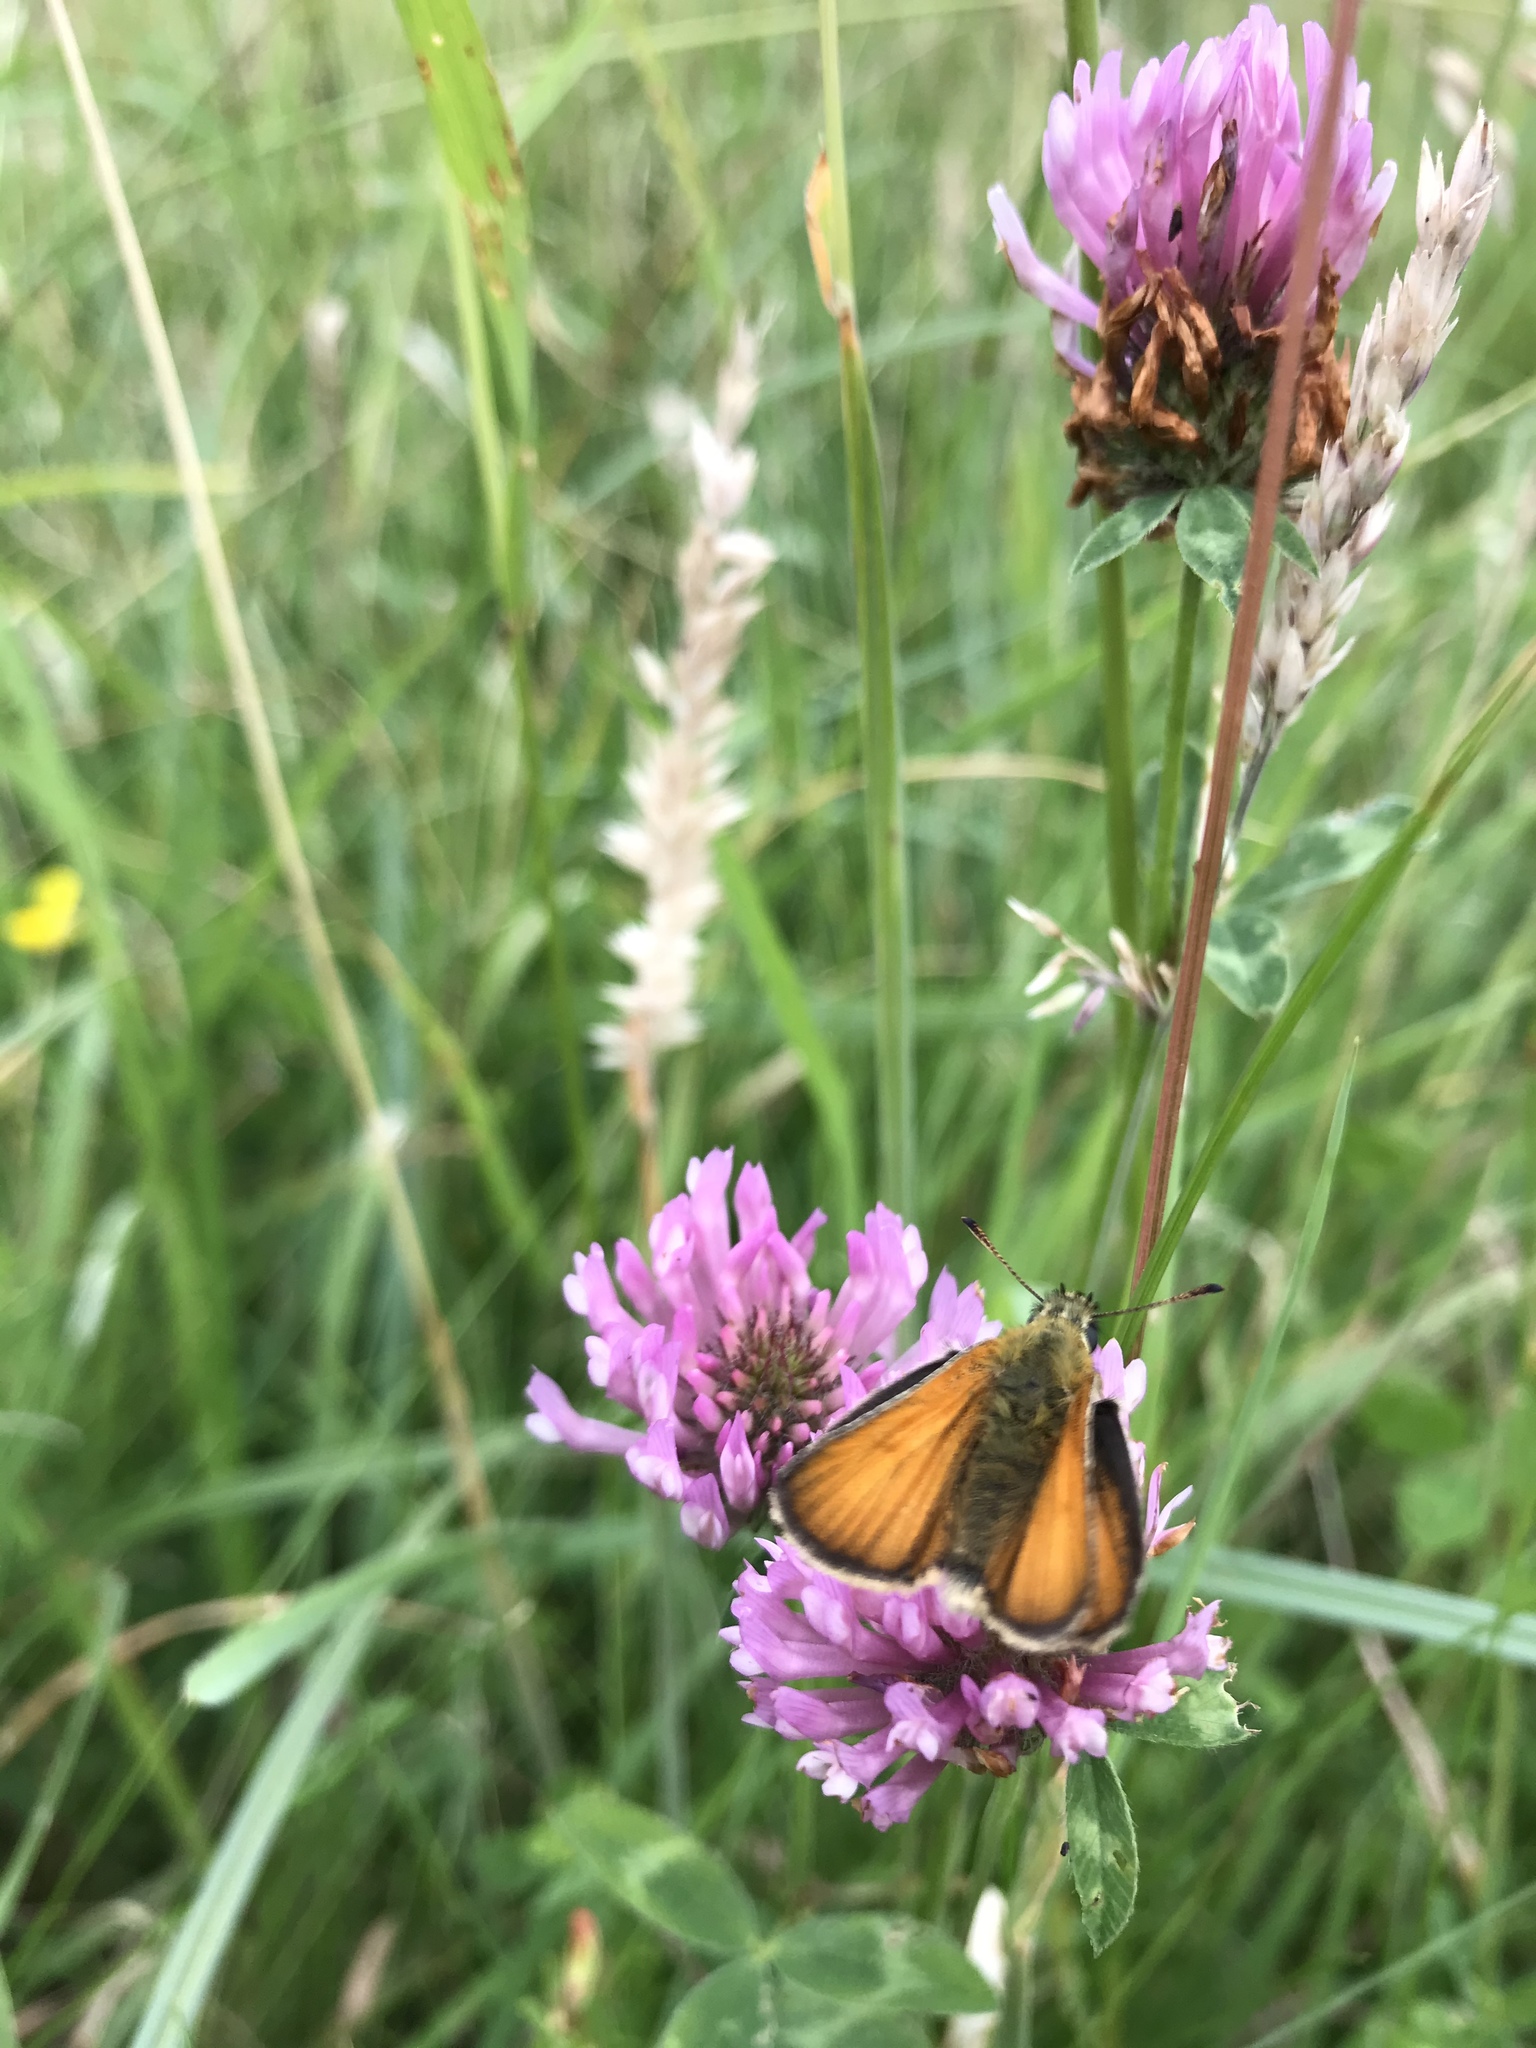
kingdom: Animalia
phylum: Arthropoda
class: Insecta
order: Lepidoptera
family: Hesperiidae
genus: Thymelicus
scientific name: Thymelicus lineola
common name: Essex skipper
